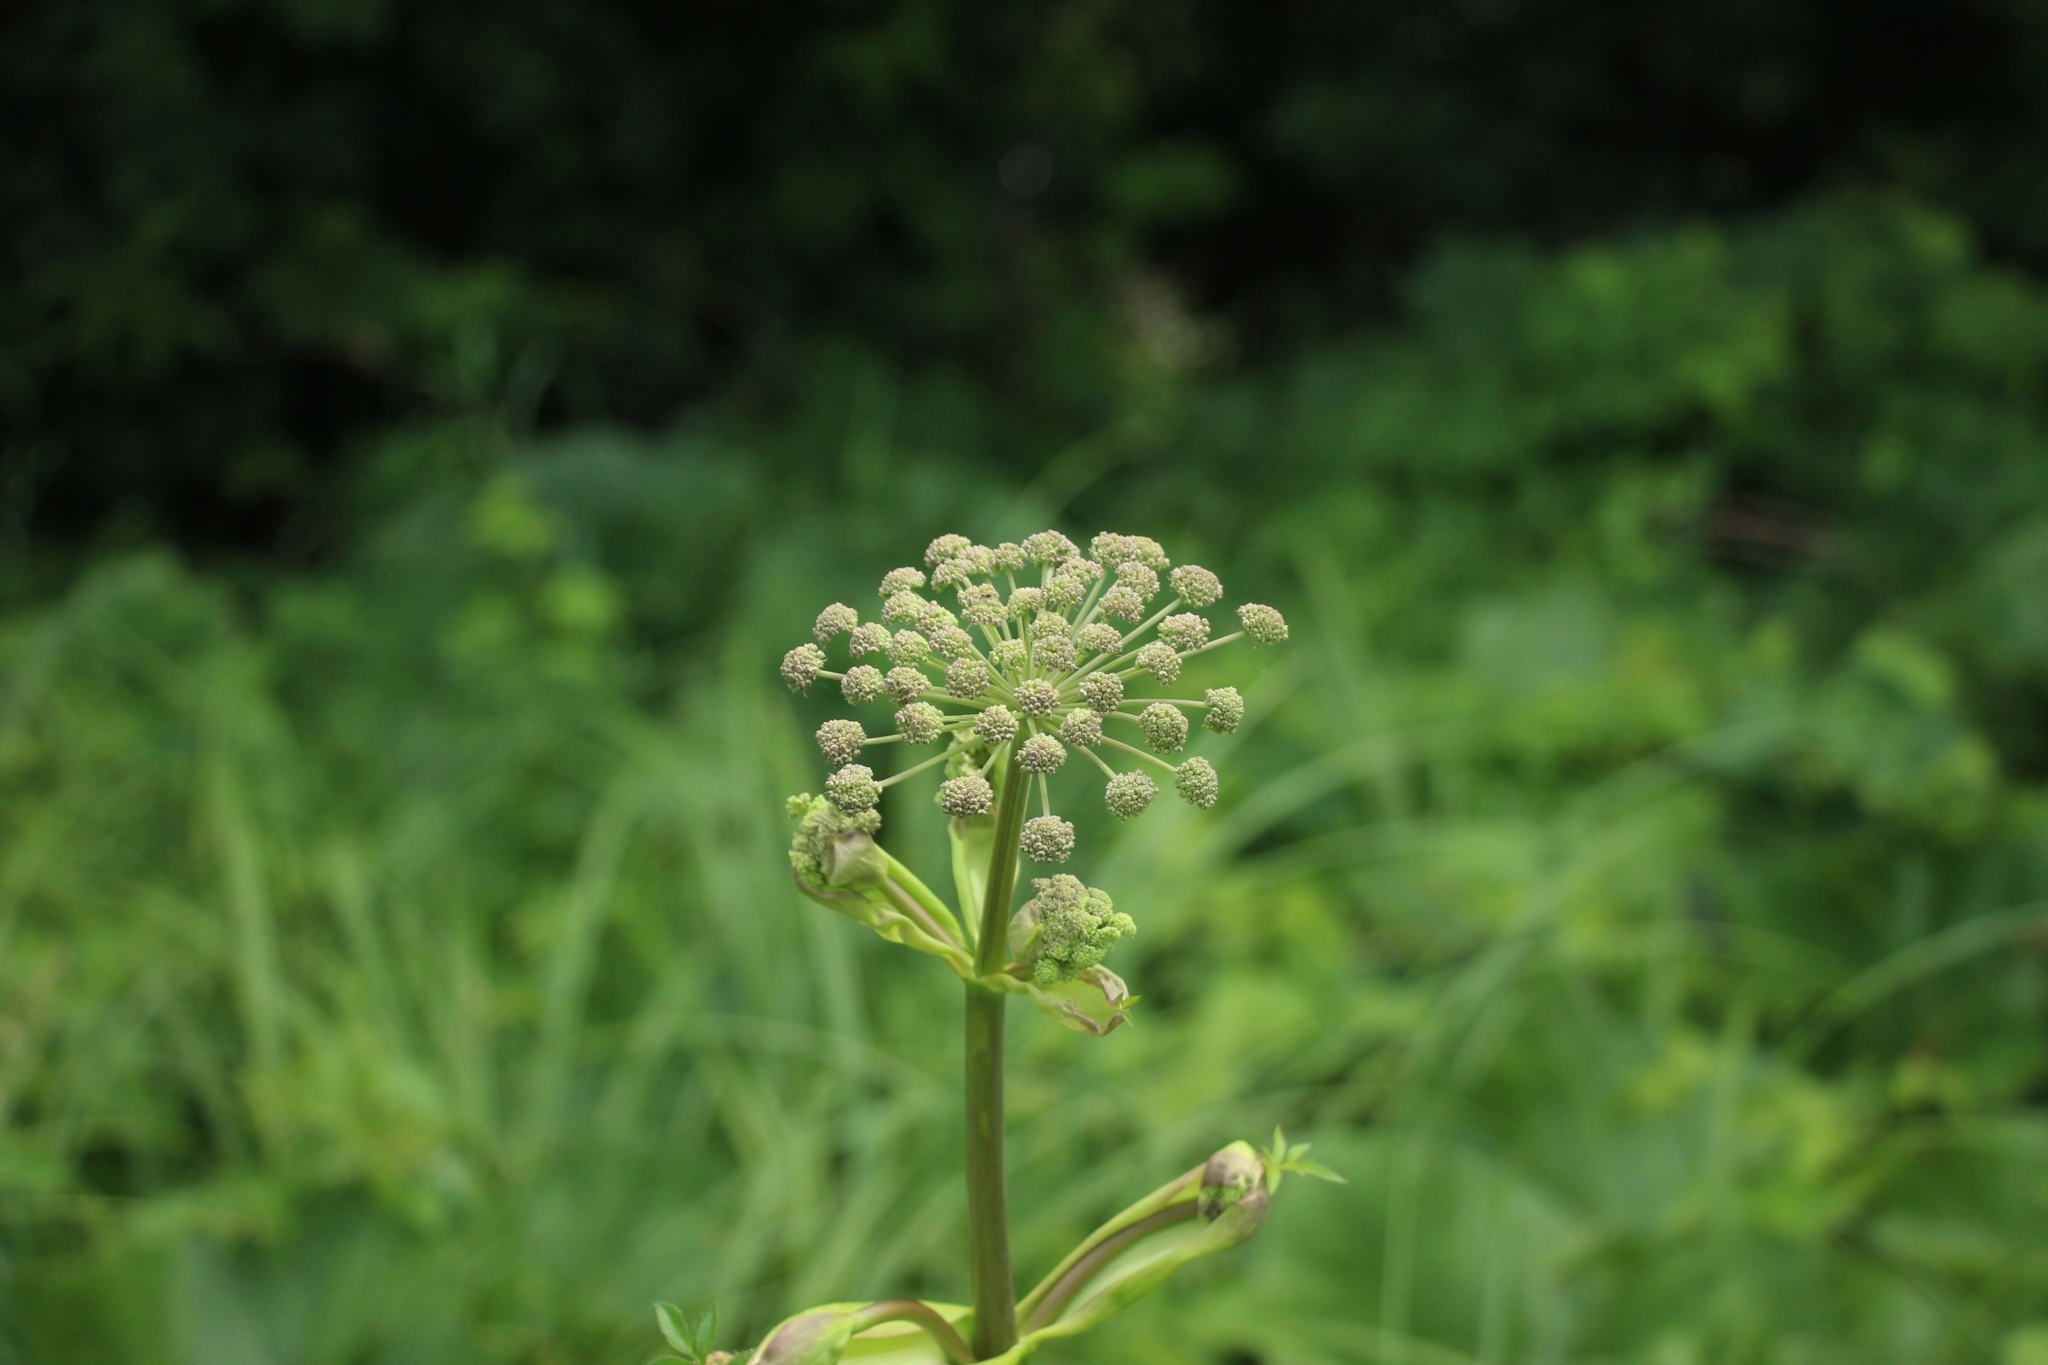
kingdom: Plantae
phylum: Tracheophyta
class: Magnoliopsida
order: Apiales
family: Apiaceae
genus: Angelica
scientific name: Angelica sylvestris
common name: Wild angelica
